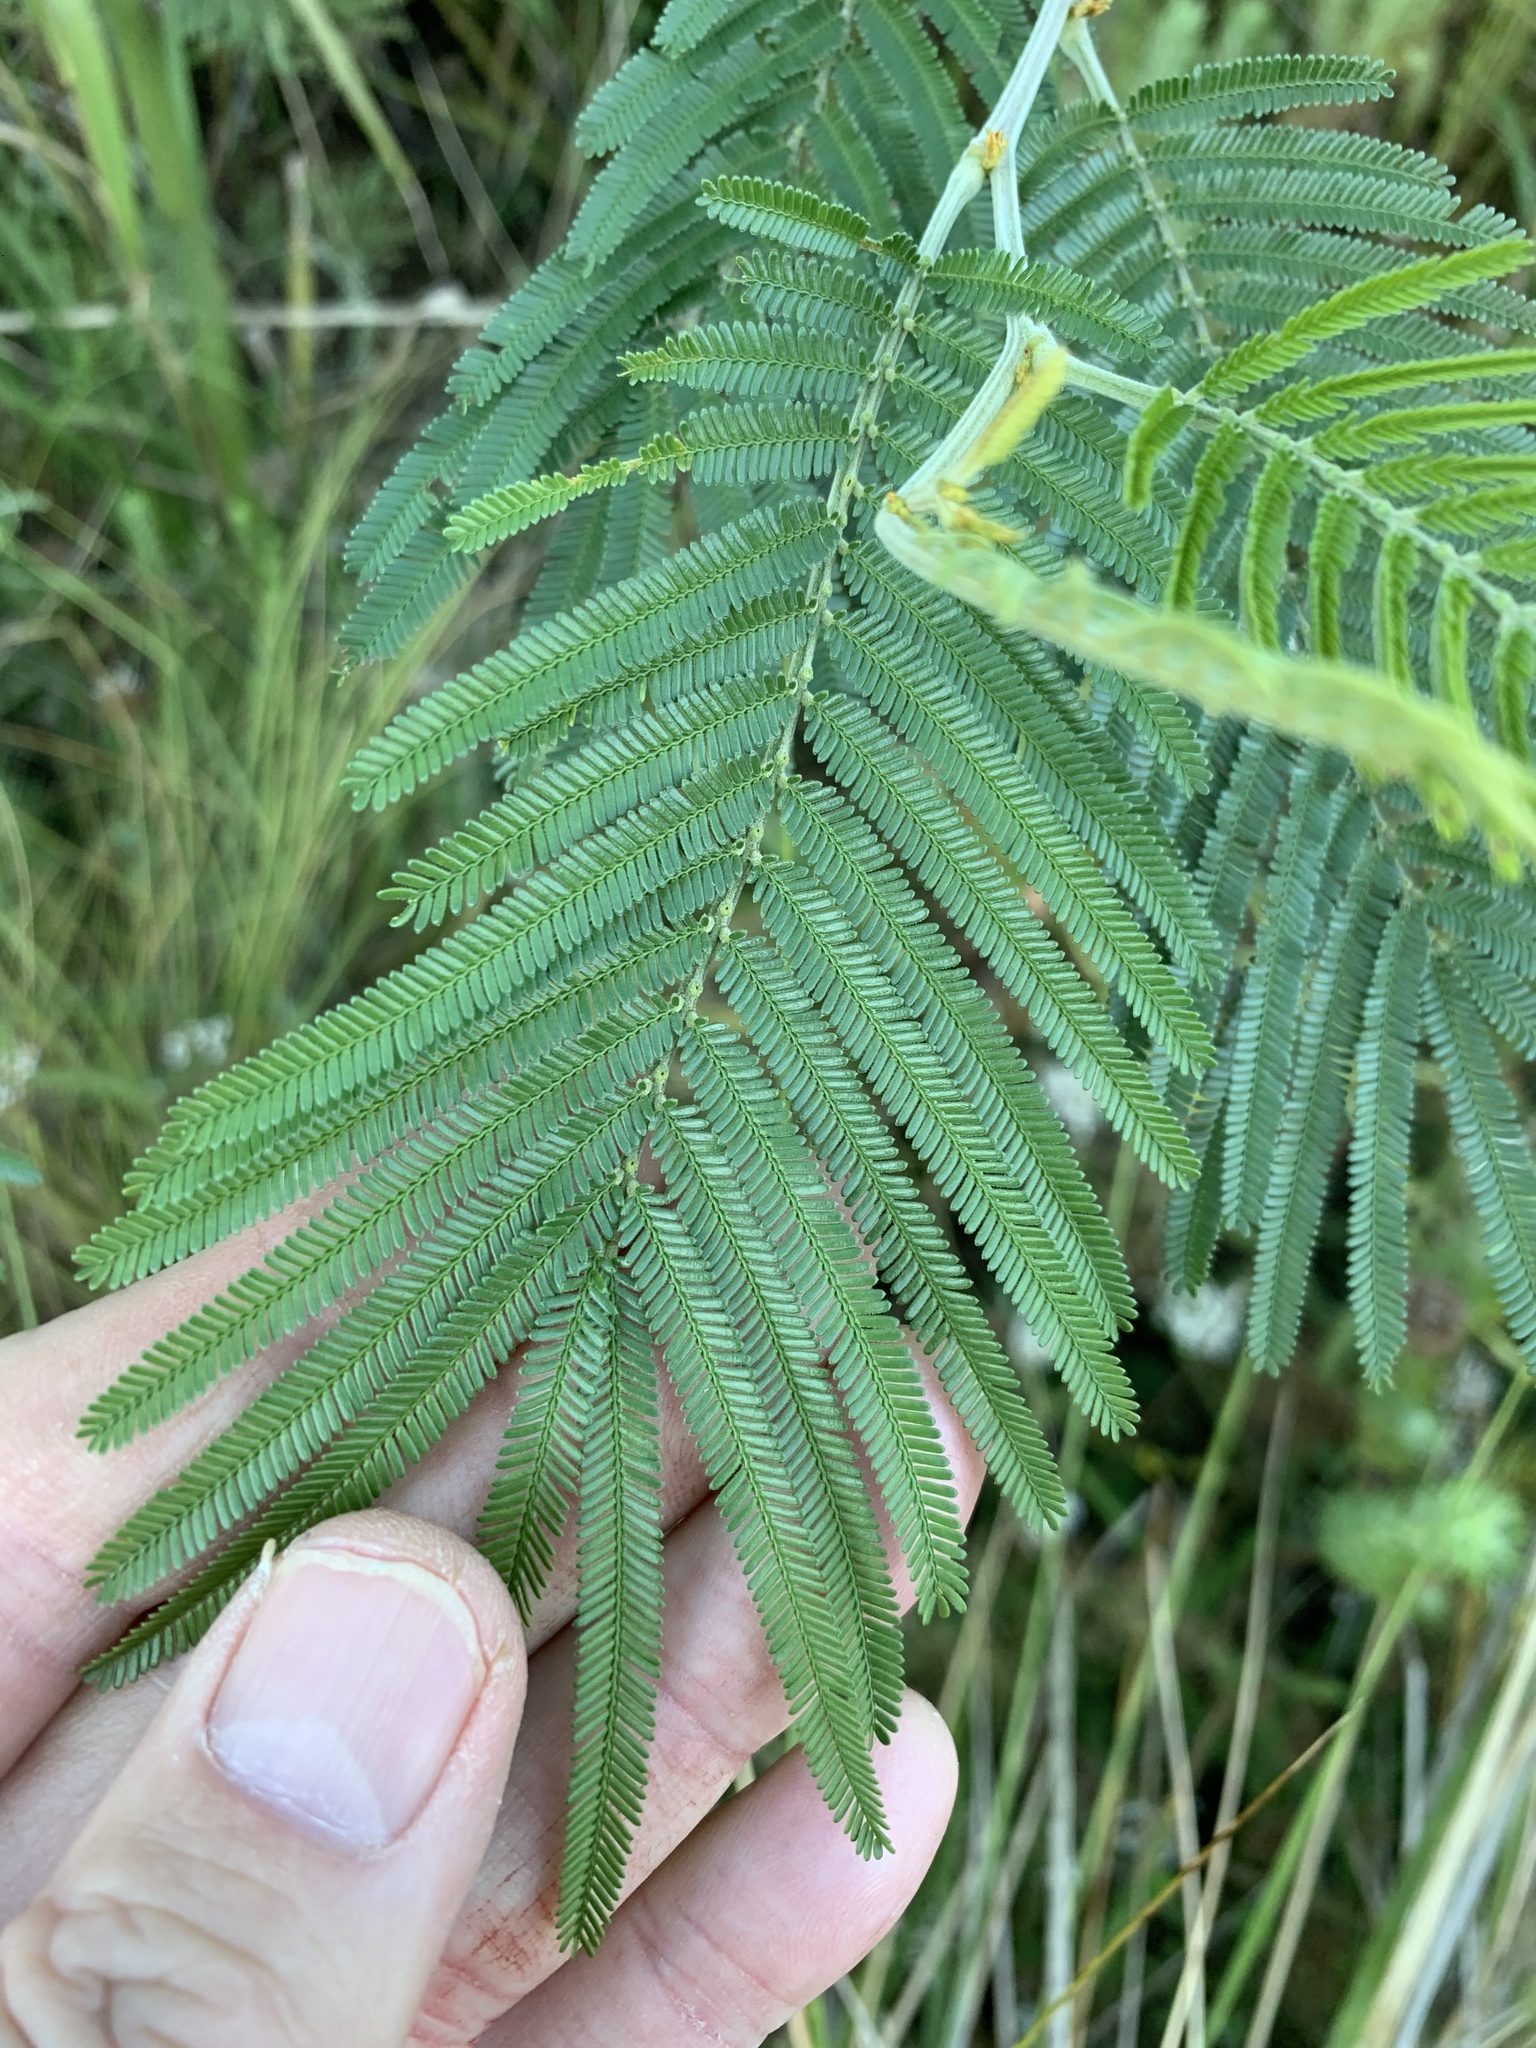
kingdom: Plantae
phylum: Tracheophyta
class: Magnoliopsida
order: Fabales
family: Fabaceae
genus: Acacia
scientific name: Acacia mearnsii
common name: Black wattle
